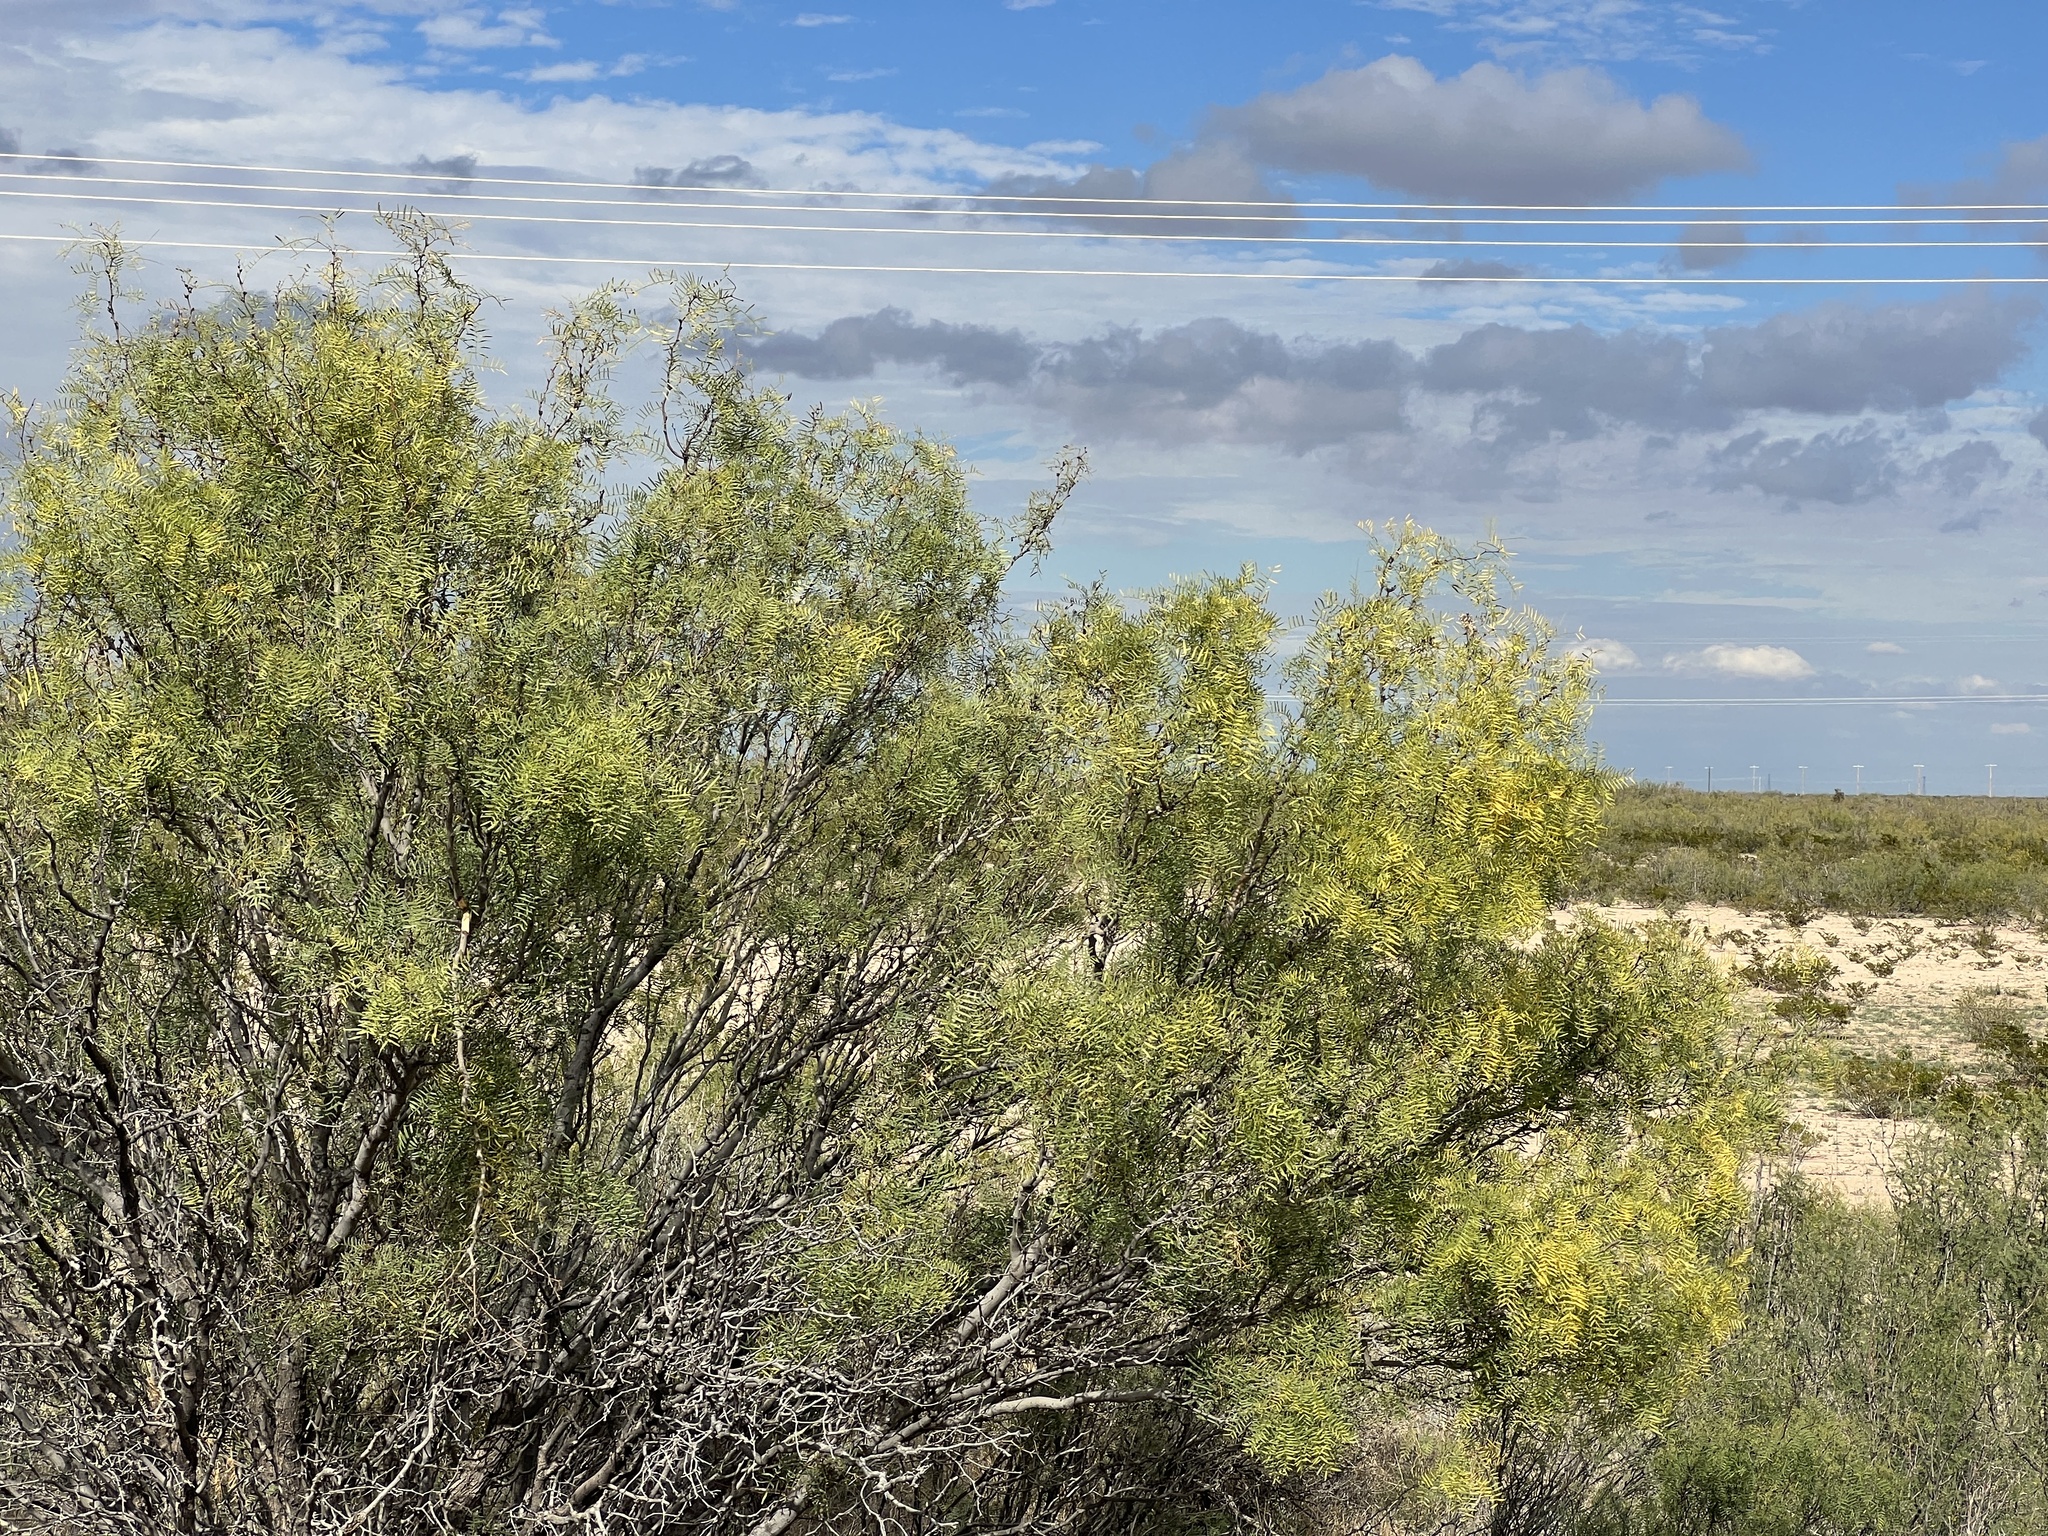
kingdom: Plantae
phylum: Tracheophyta
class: Magnoliopsida
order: Fabales
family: Fabaceae
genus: Prosopis
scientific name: Prosopis glandulosa
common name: Honey mesquite
